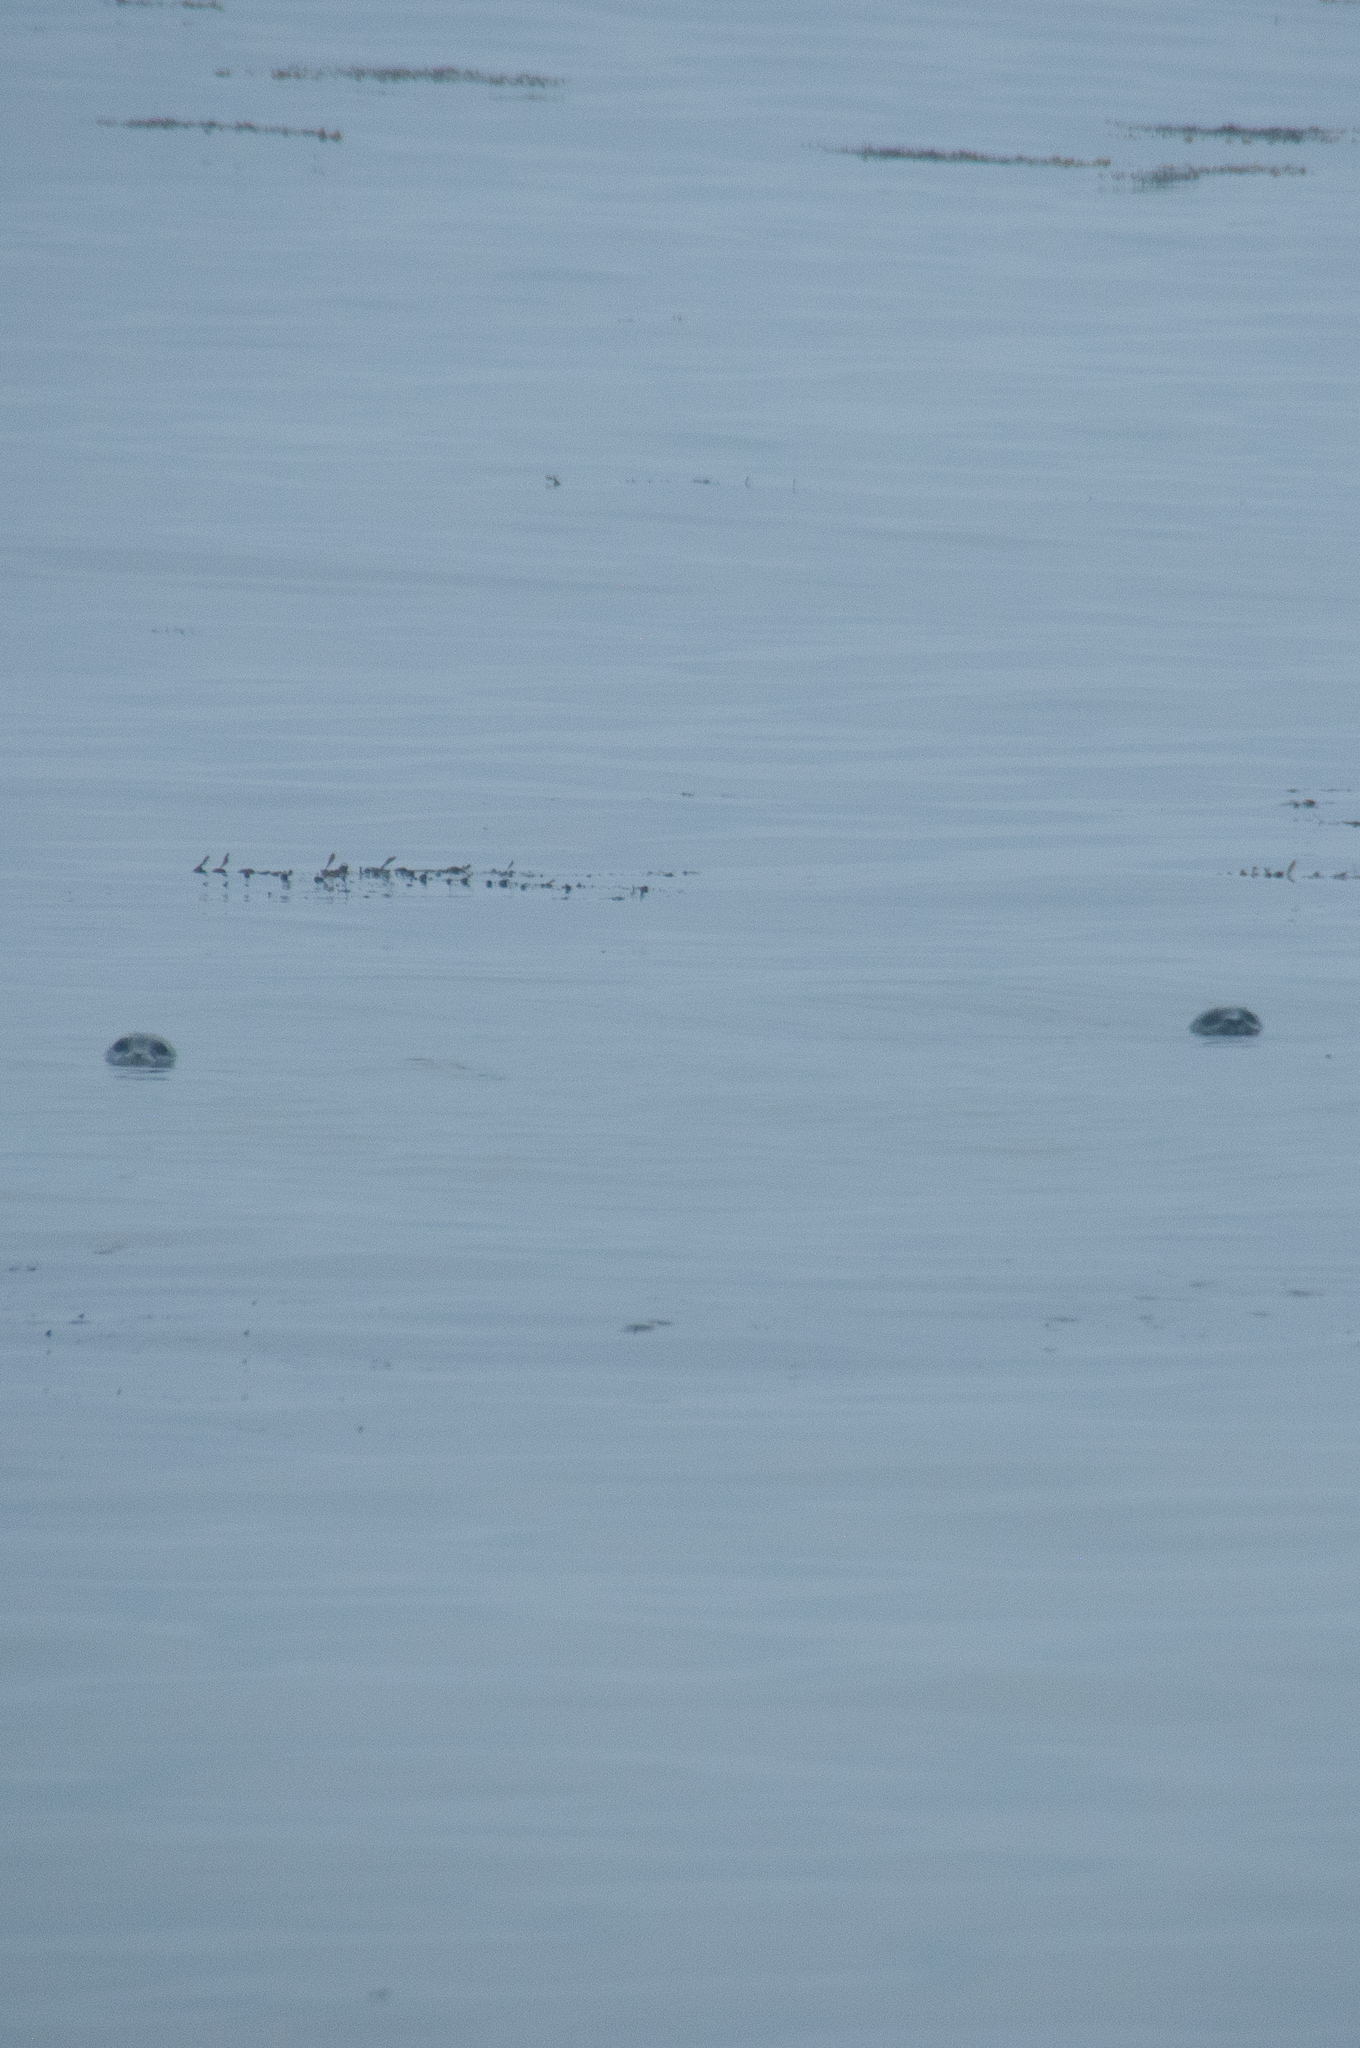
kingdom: Animalia
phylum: Chordata
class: Mammalia
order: Carnivora
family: Phocidae
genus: Phoca
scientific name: Phoca vitulina
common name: Harbor seal
